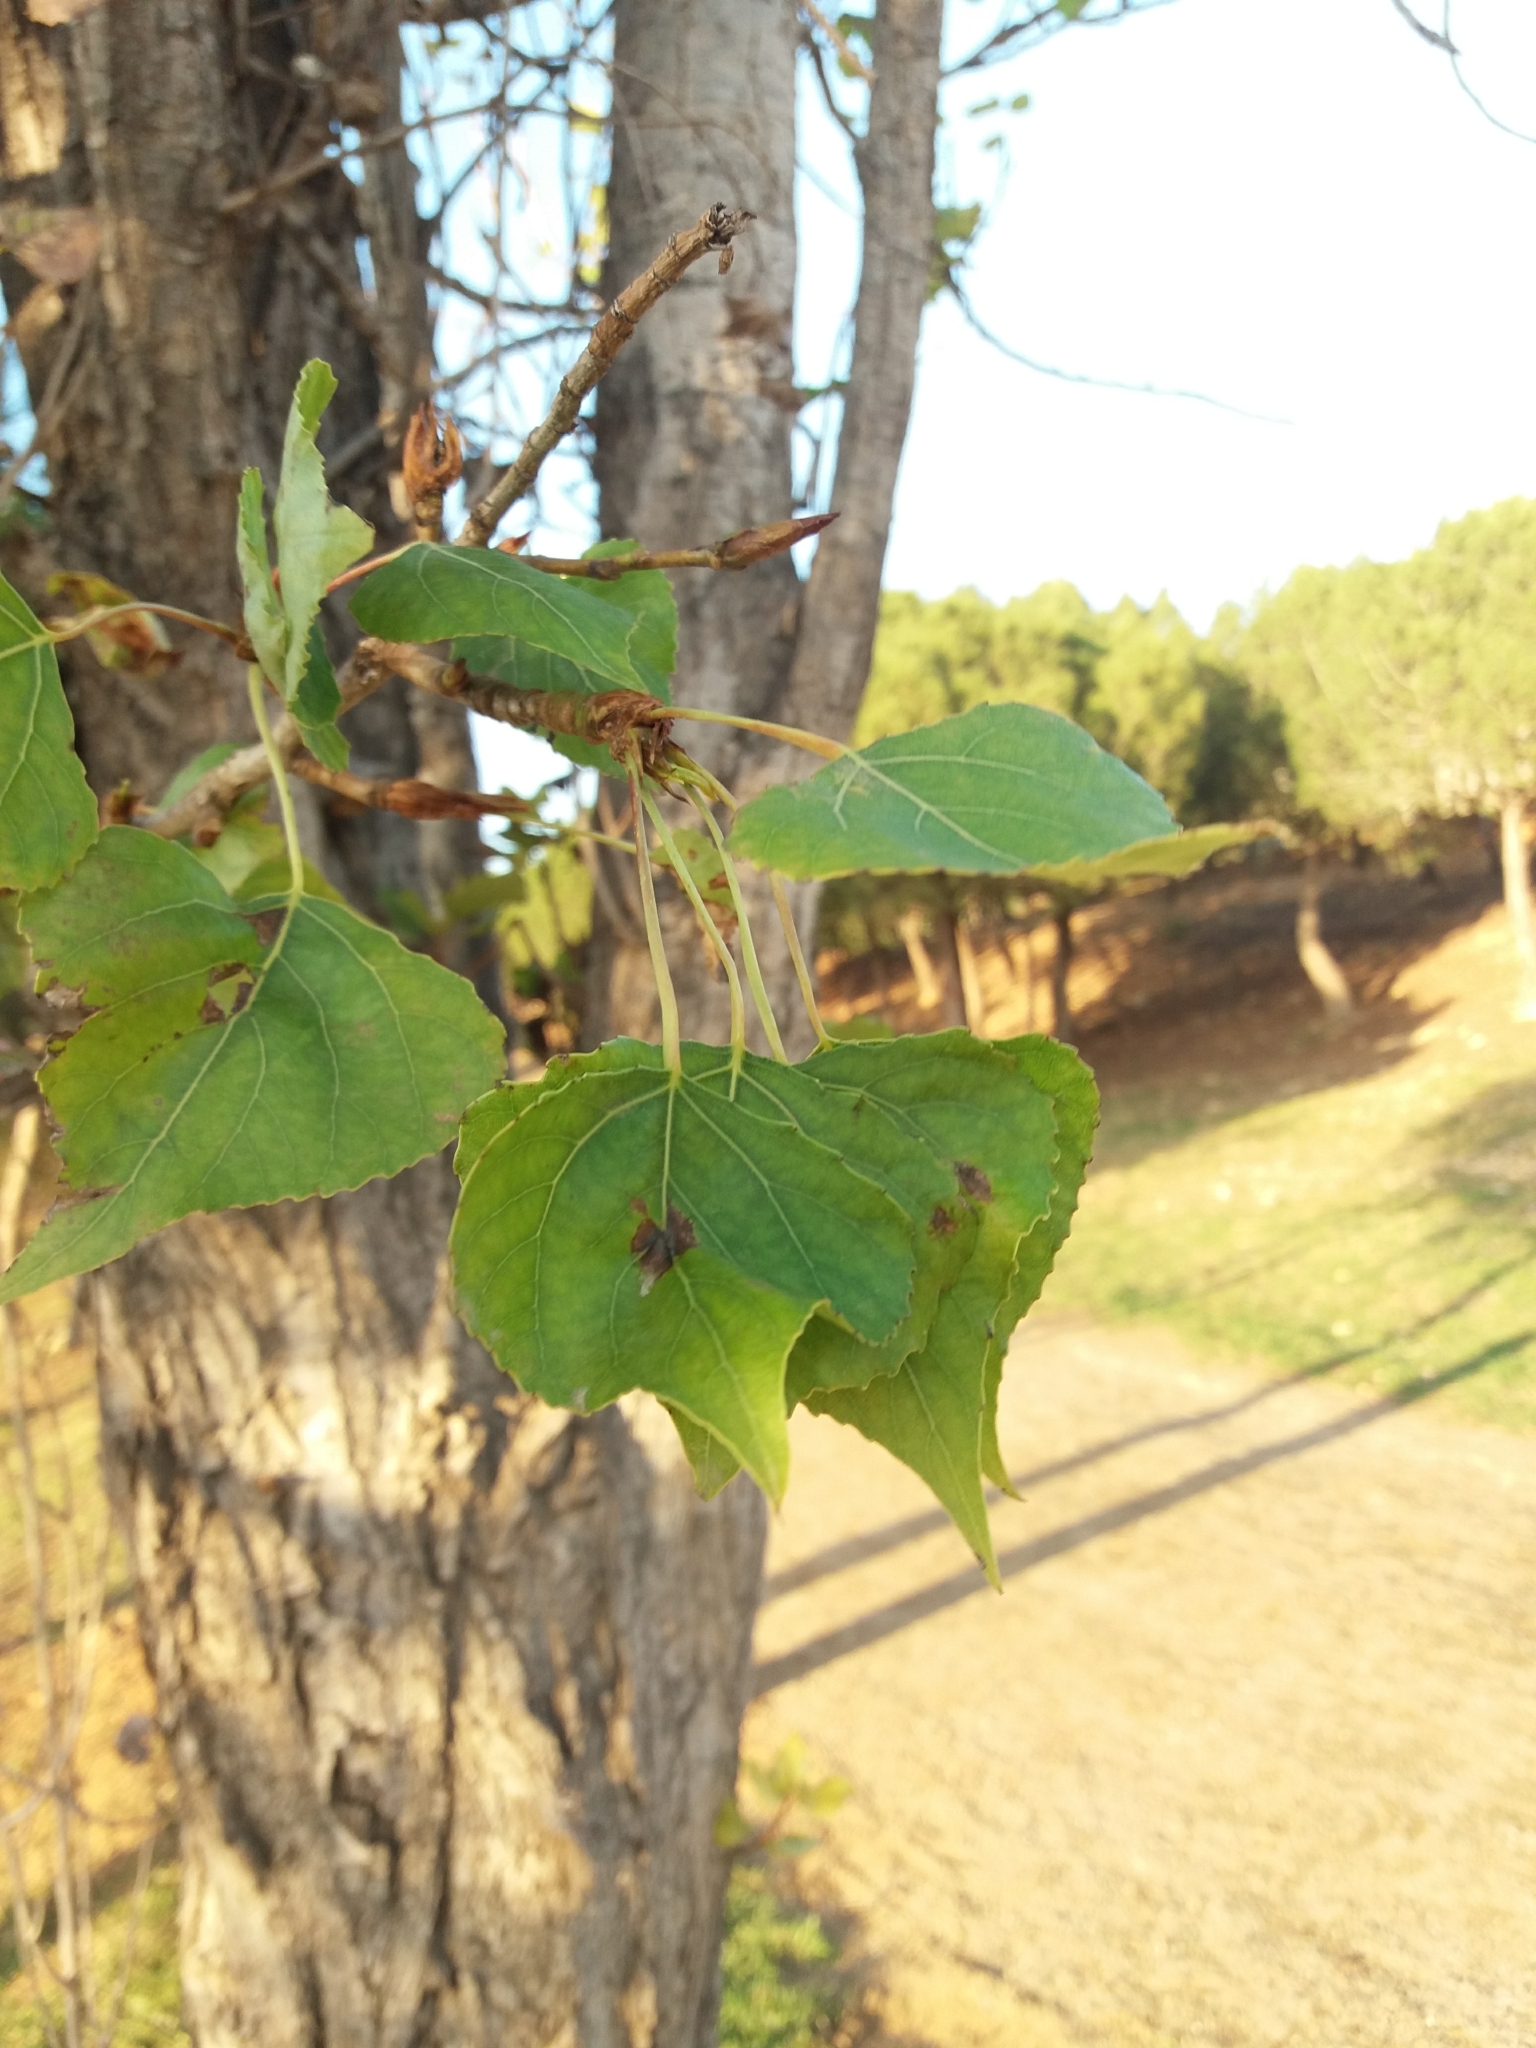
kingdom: Plantae
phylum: Tracheophyta
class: Magnoliopsida
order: Malpighiales
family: Salicaceae
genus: Populus
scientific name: Populus nigra
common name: Black poplar
